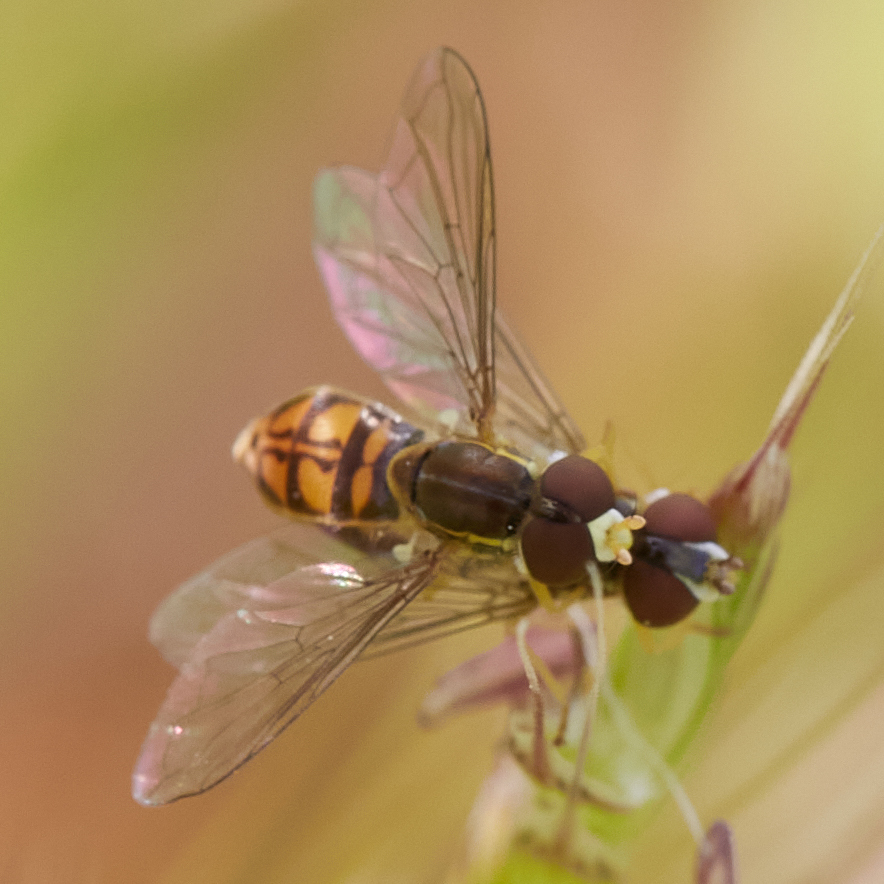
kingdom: Animalia
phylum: Arthropoda
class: Insecta
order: Diptera
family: Syrphidae
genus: Toxomerus
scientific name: Toxomerus marginatus
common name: Syrphid fly
